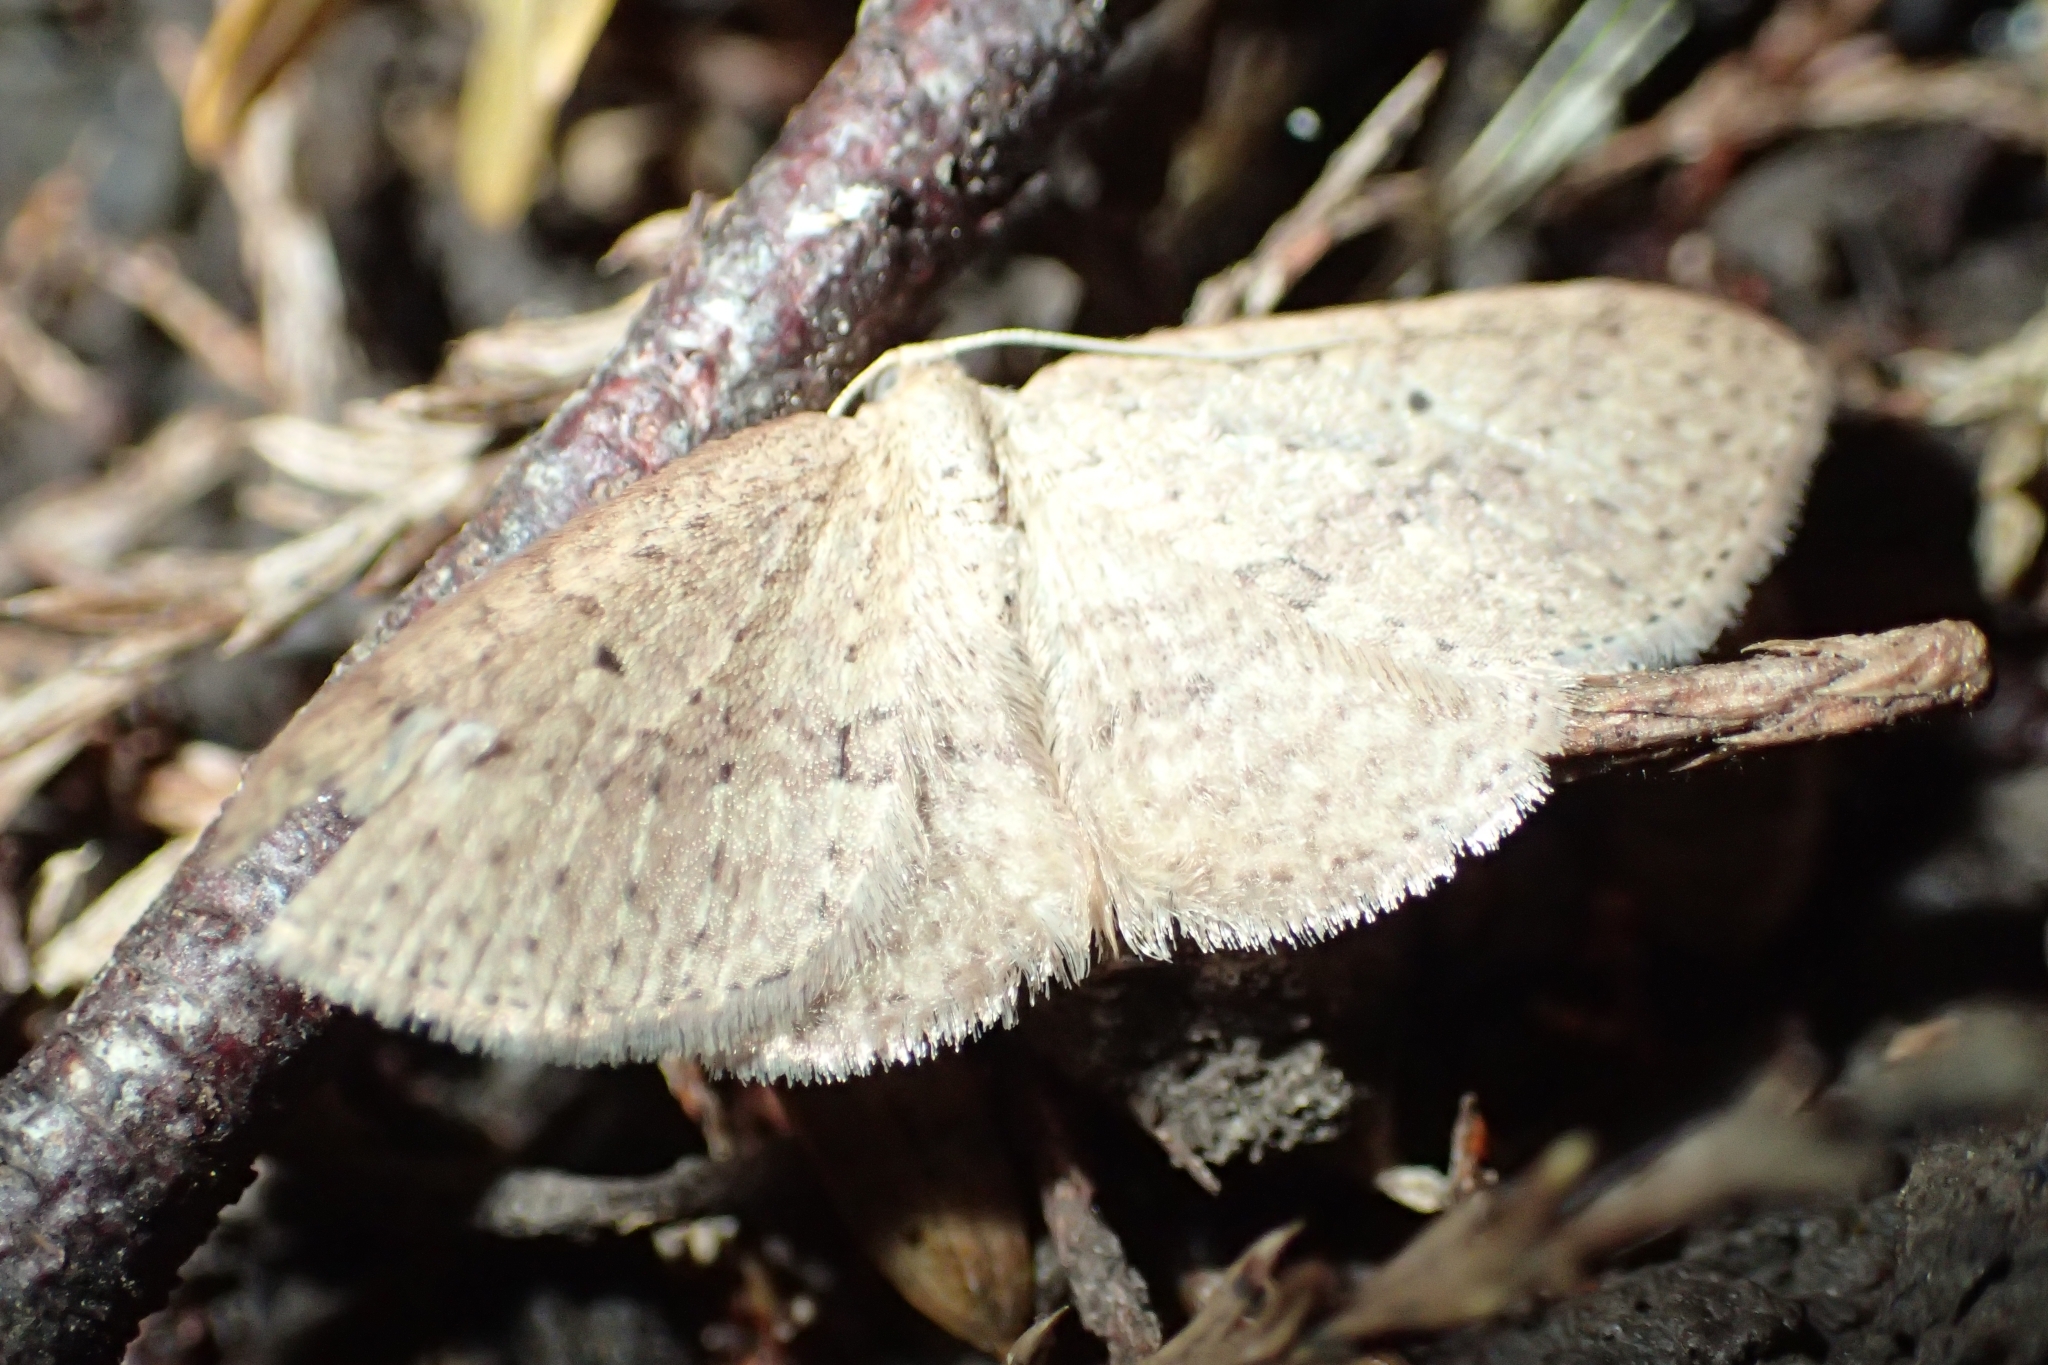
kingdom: Animalia
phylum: Arthropoda
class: Insecta
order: Lepidoptera
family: Geometridae
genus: Poecilasthena
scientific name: Poecilasthena schistaria
